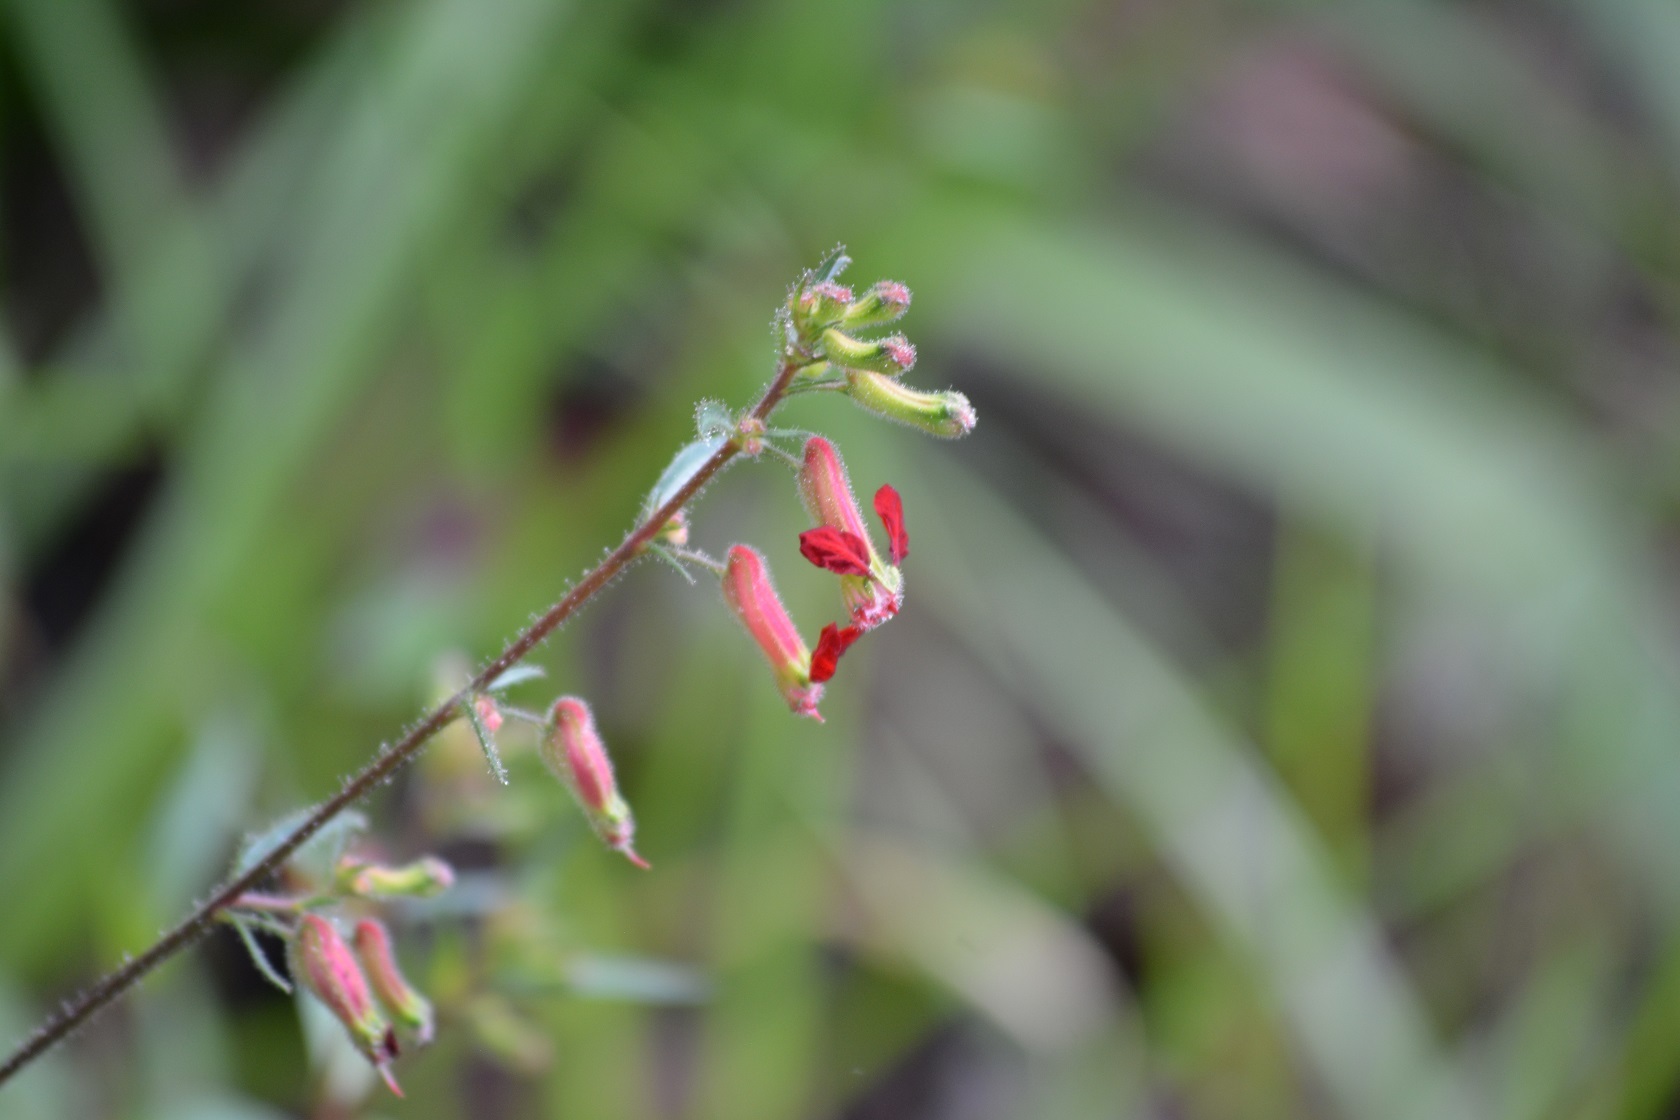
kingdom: Plantae
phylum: Tracheophyta
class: Magnoliopsida
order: Myrtales
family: Lythraceae
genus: Cuphea
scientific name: Cuphea hookeriana
